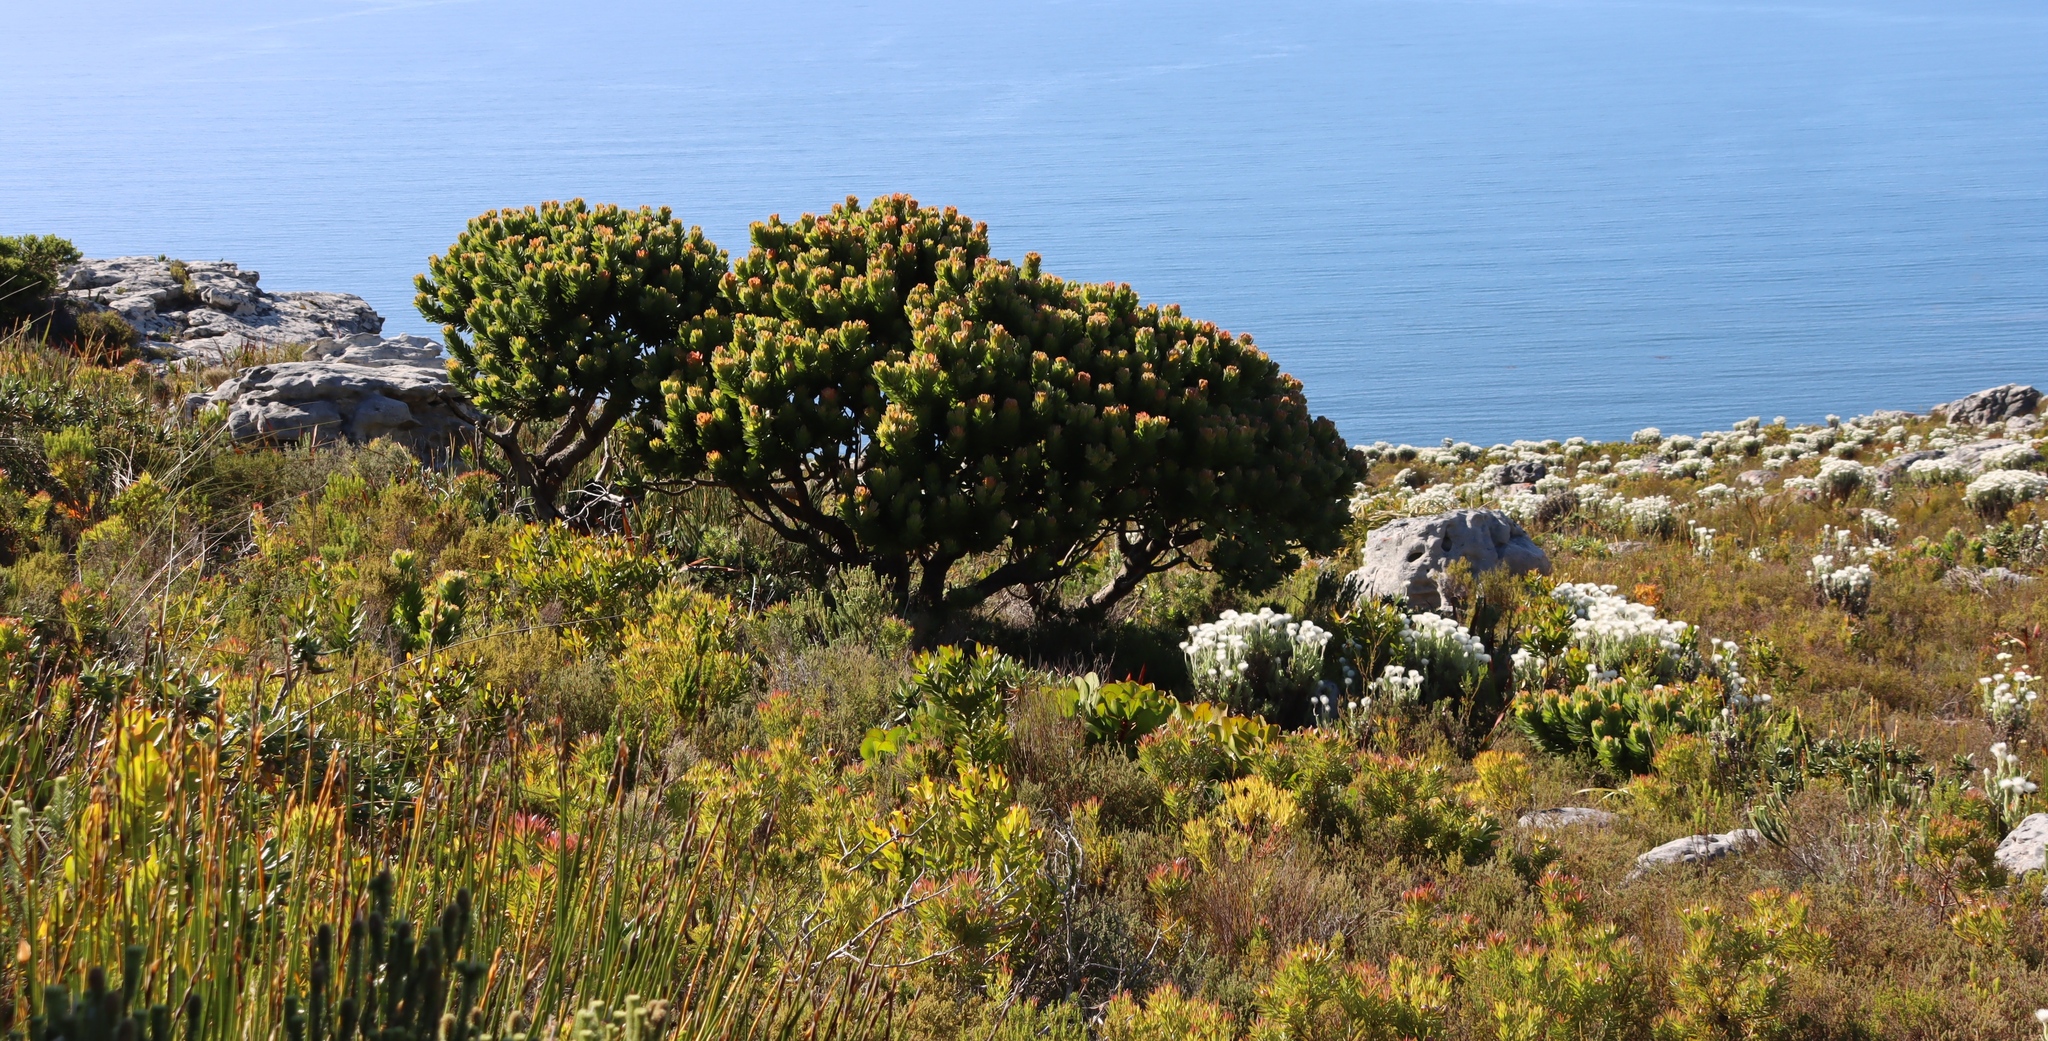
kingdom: Plantae
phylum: Tracheophyta
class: Magnoliopsida
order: Proteales
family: Proteaceae
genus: Mimetes
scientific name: Mimetes fimbriifolius
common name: Fringed bottlebrush
